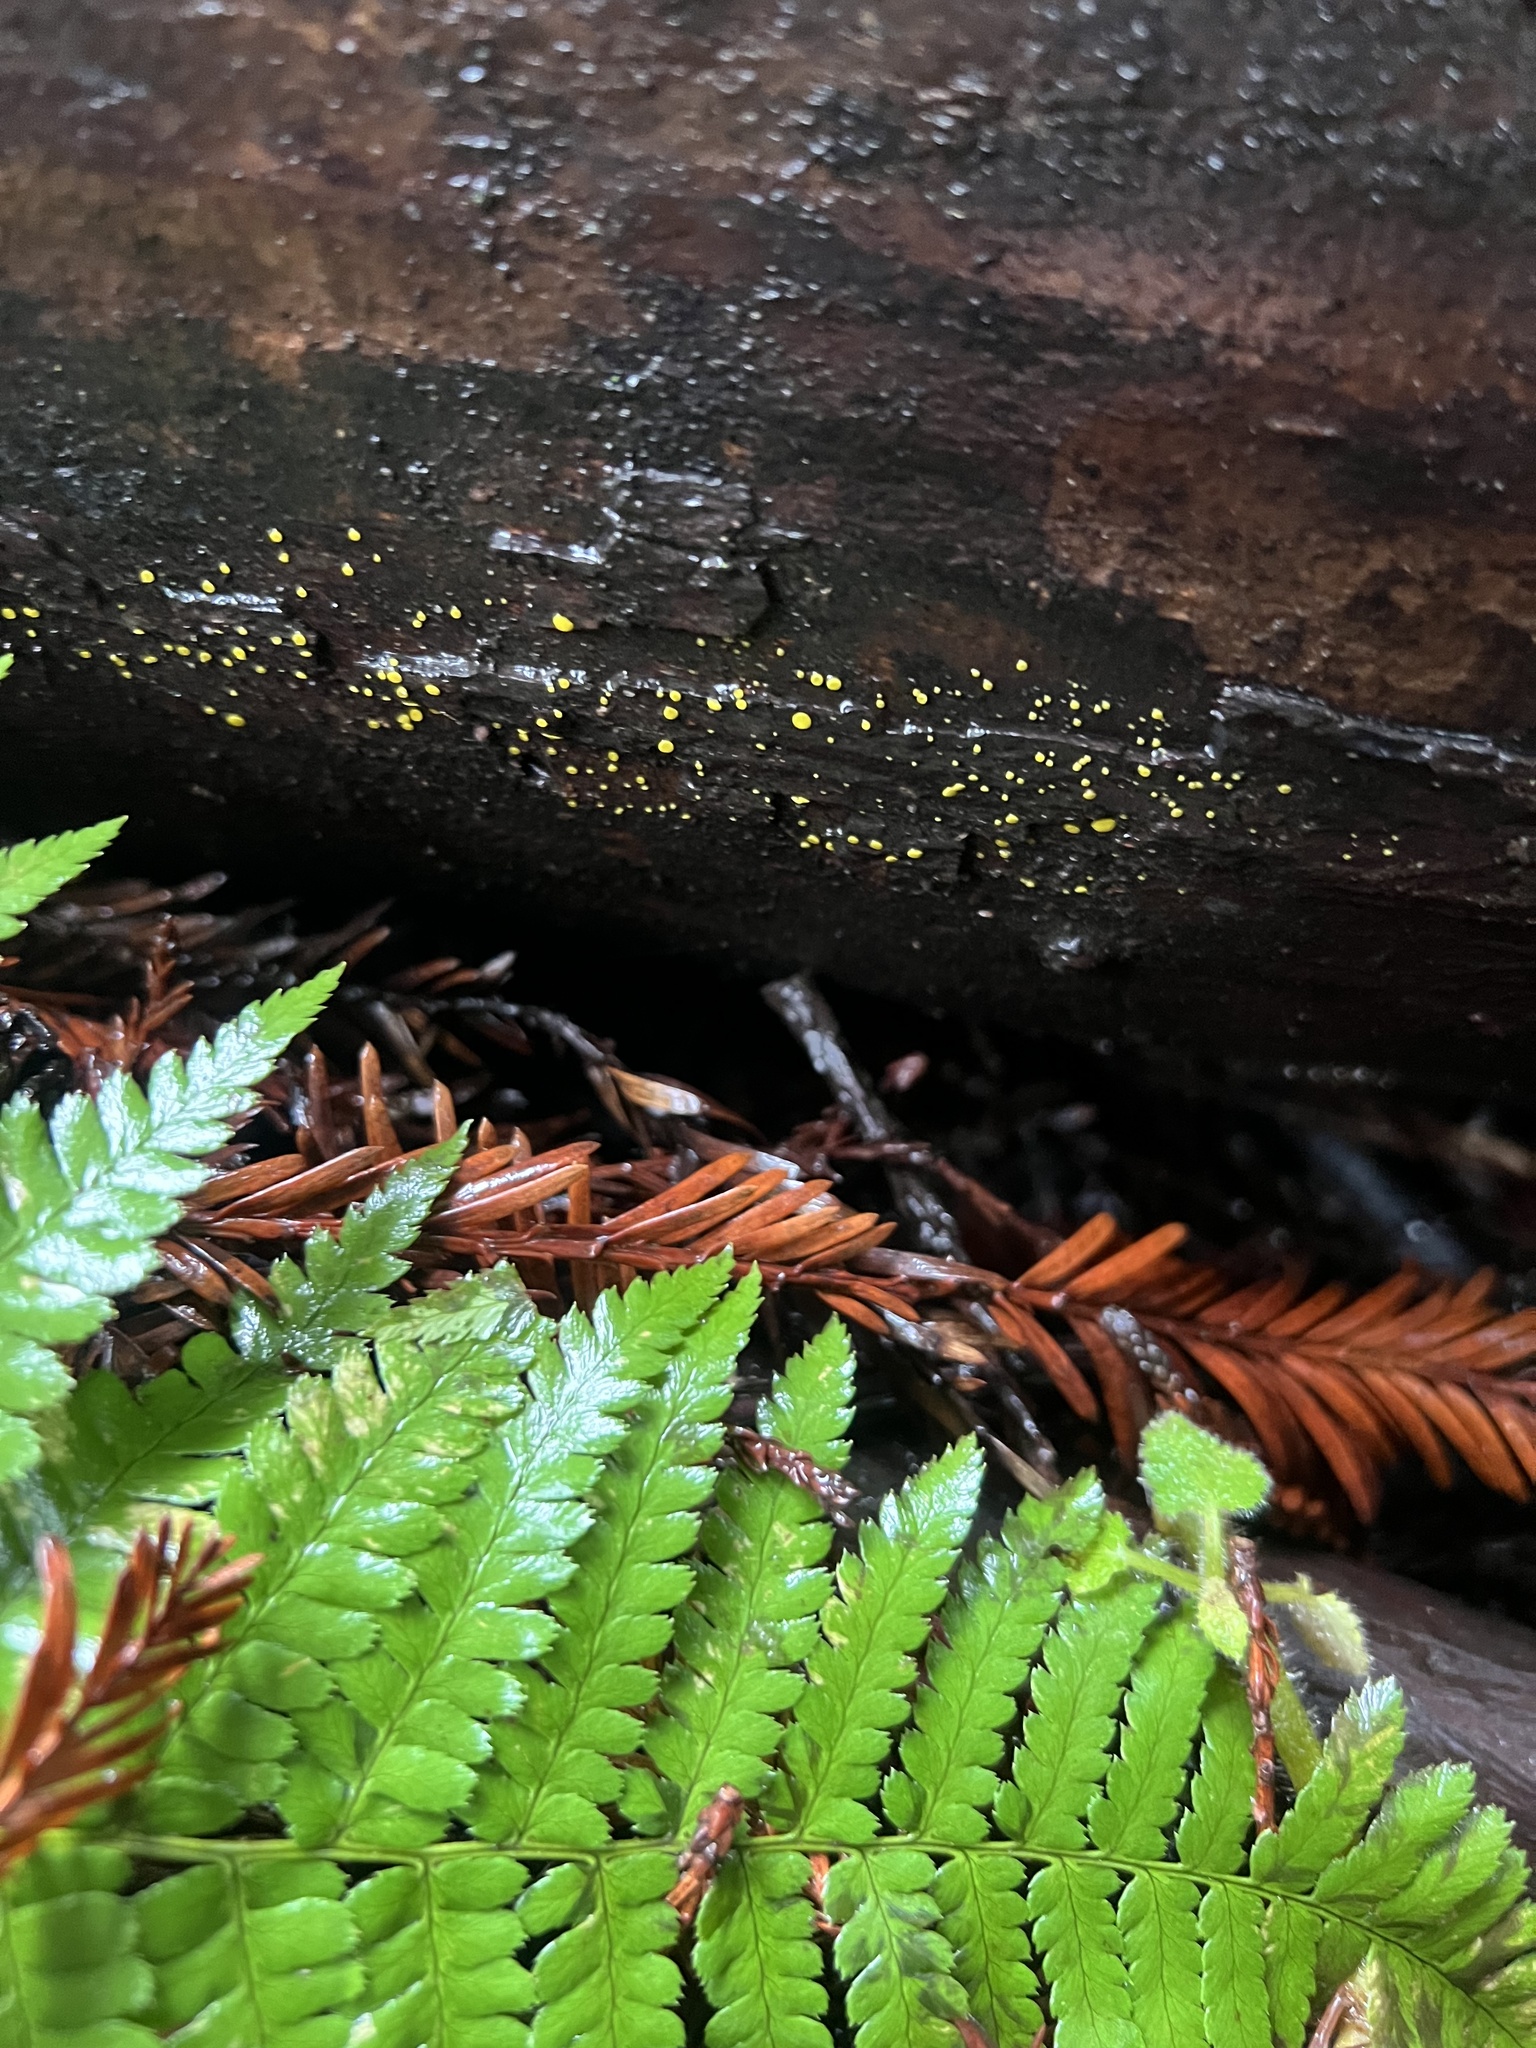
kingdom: Fungi
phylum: Ascomycota
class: Leotiomycetes
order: Helotiales
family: Pezizellaceae
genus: Calycina
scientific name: Calycina claroflava
